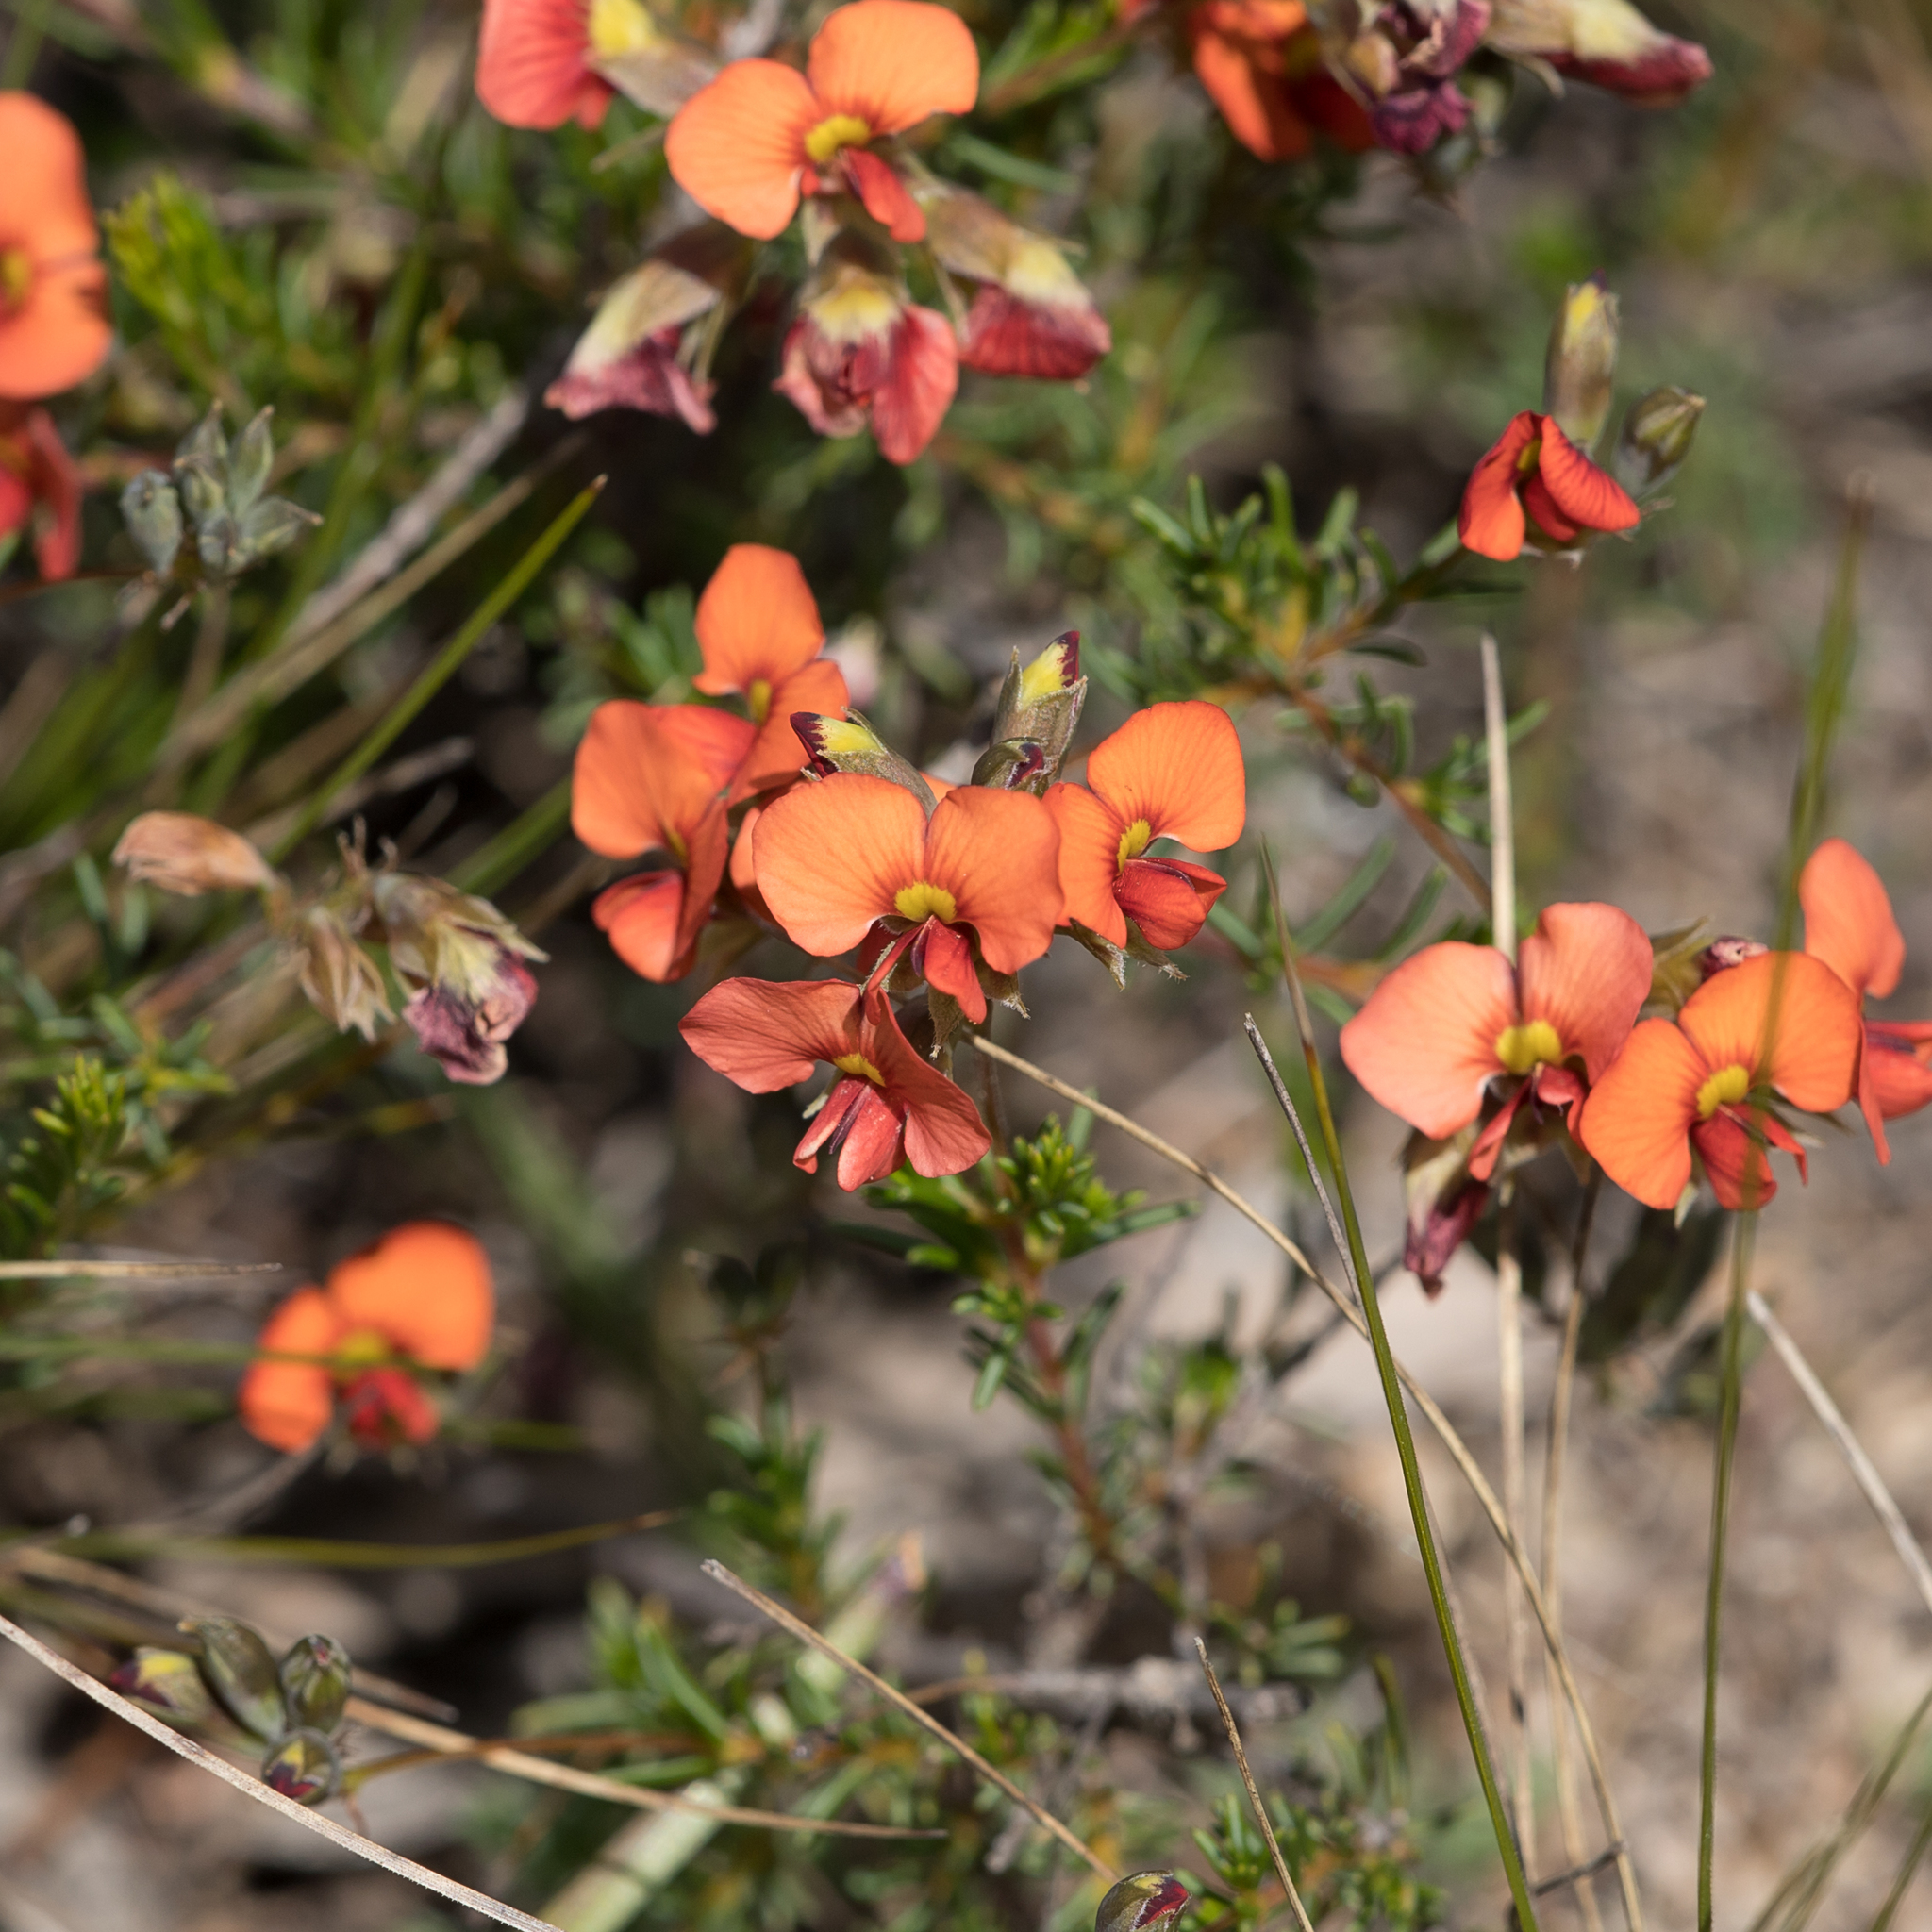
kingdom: Plantae
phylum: Tracheophyta
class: Magnoliopsida
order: Fabales
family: Fabaceae
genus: Dillwynia
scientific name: Dillwynia hispida
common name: Red parrot-pea
